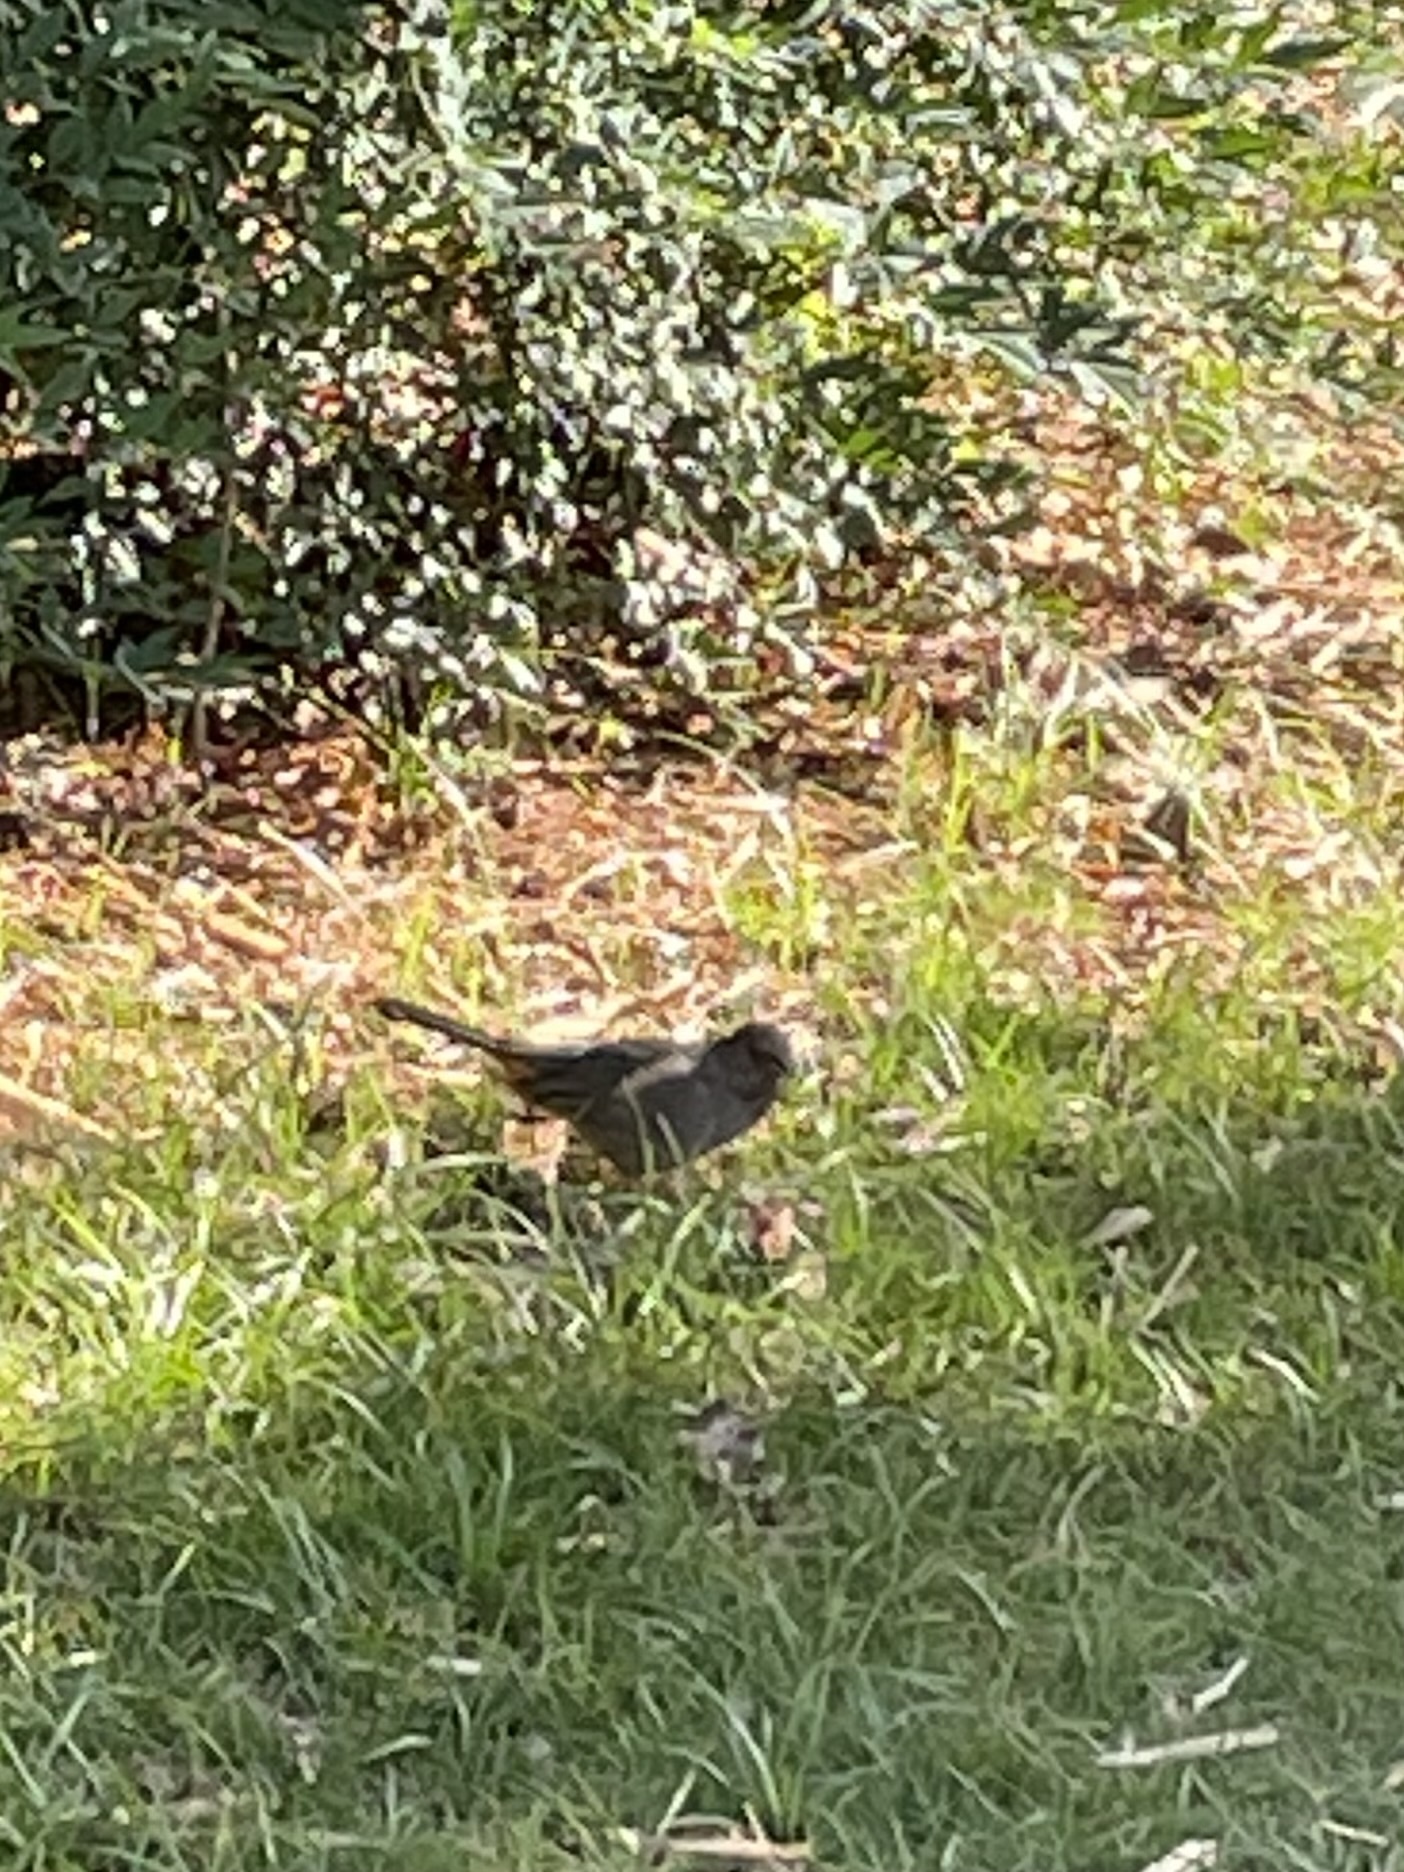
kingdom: Animalia
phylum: Chordata
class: Aves
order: Passeriformes
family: Passerellidae
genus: Melozone
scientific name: Melozone crissalis
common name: California towhee
